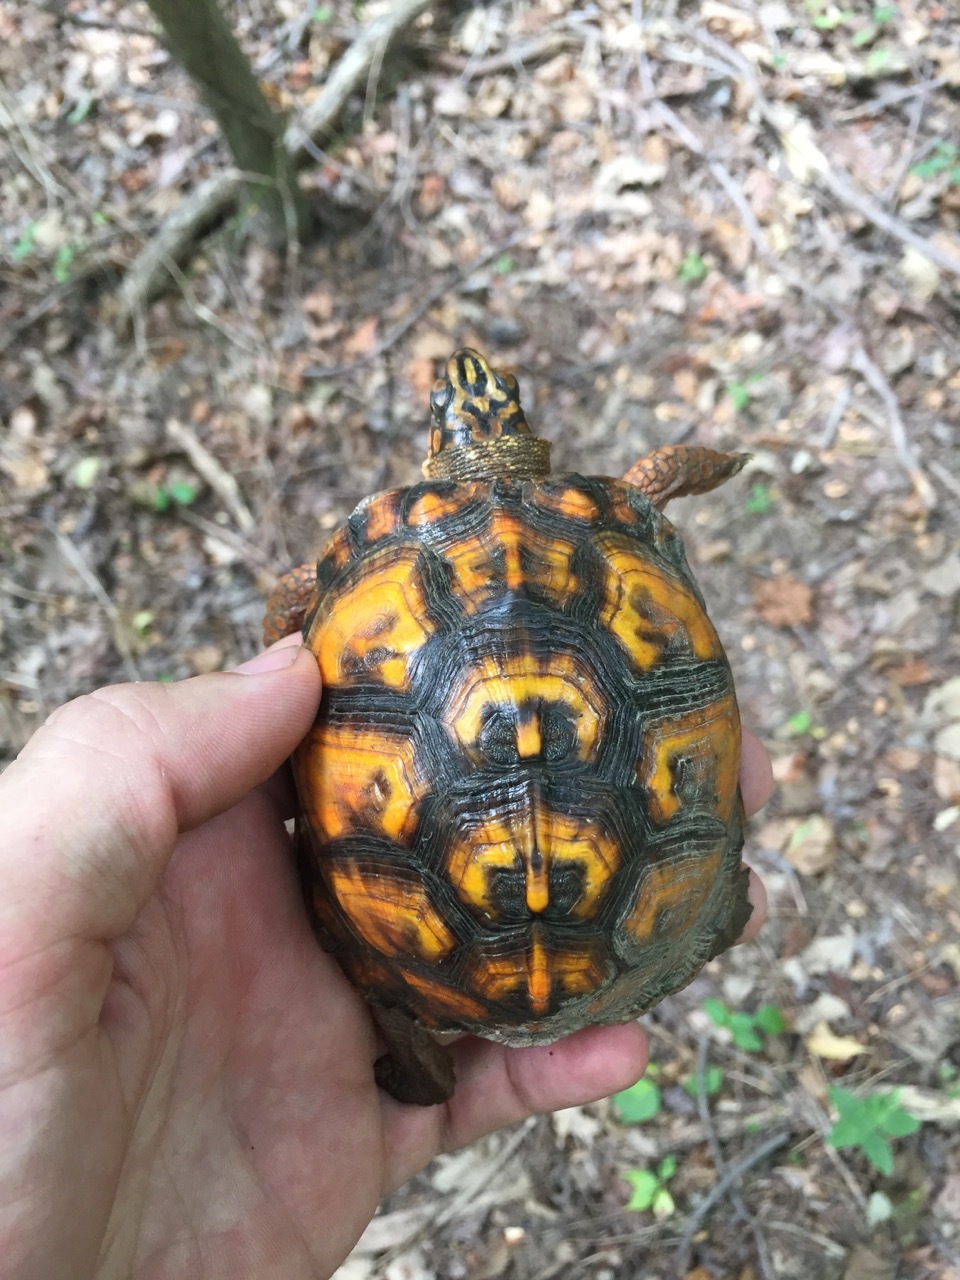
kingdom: Animalia
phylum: Chordata
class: Testudines
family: Emydidae
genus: Terrapene
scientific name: Terrapene carolina
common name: Common box turtle
